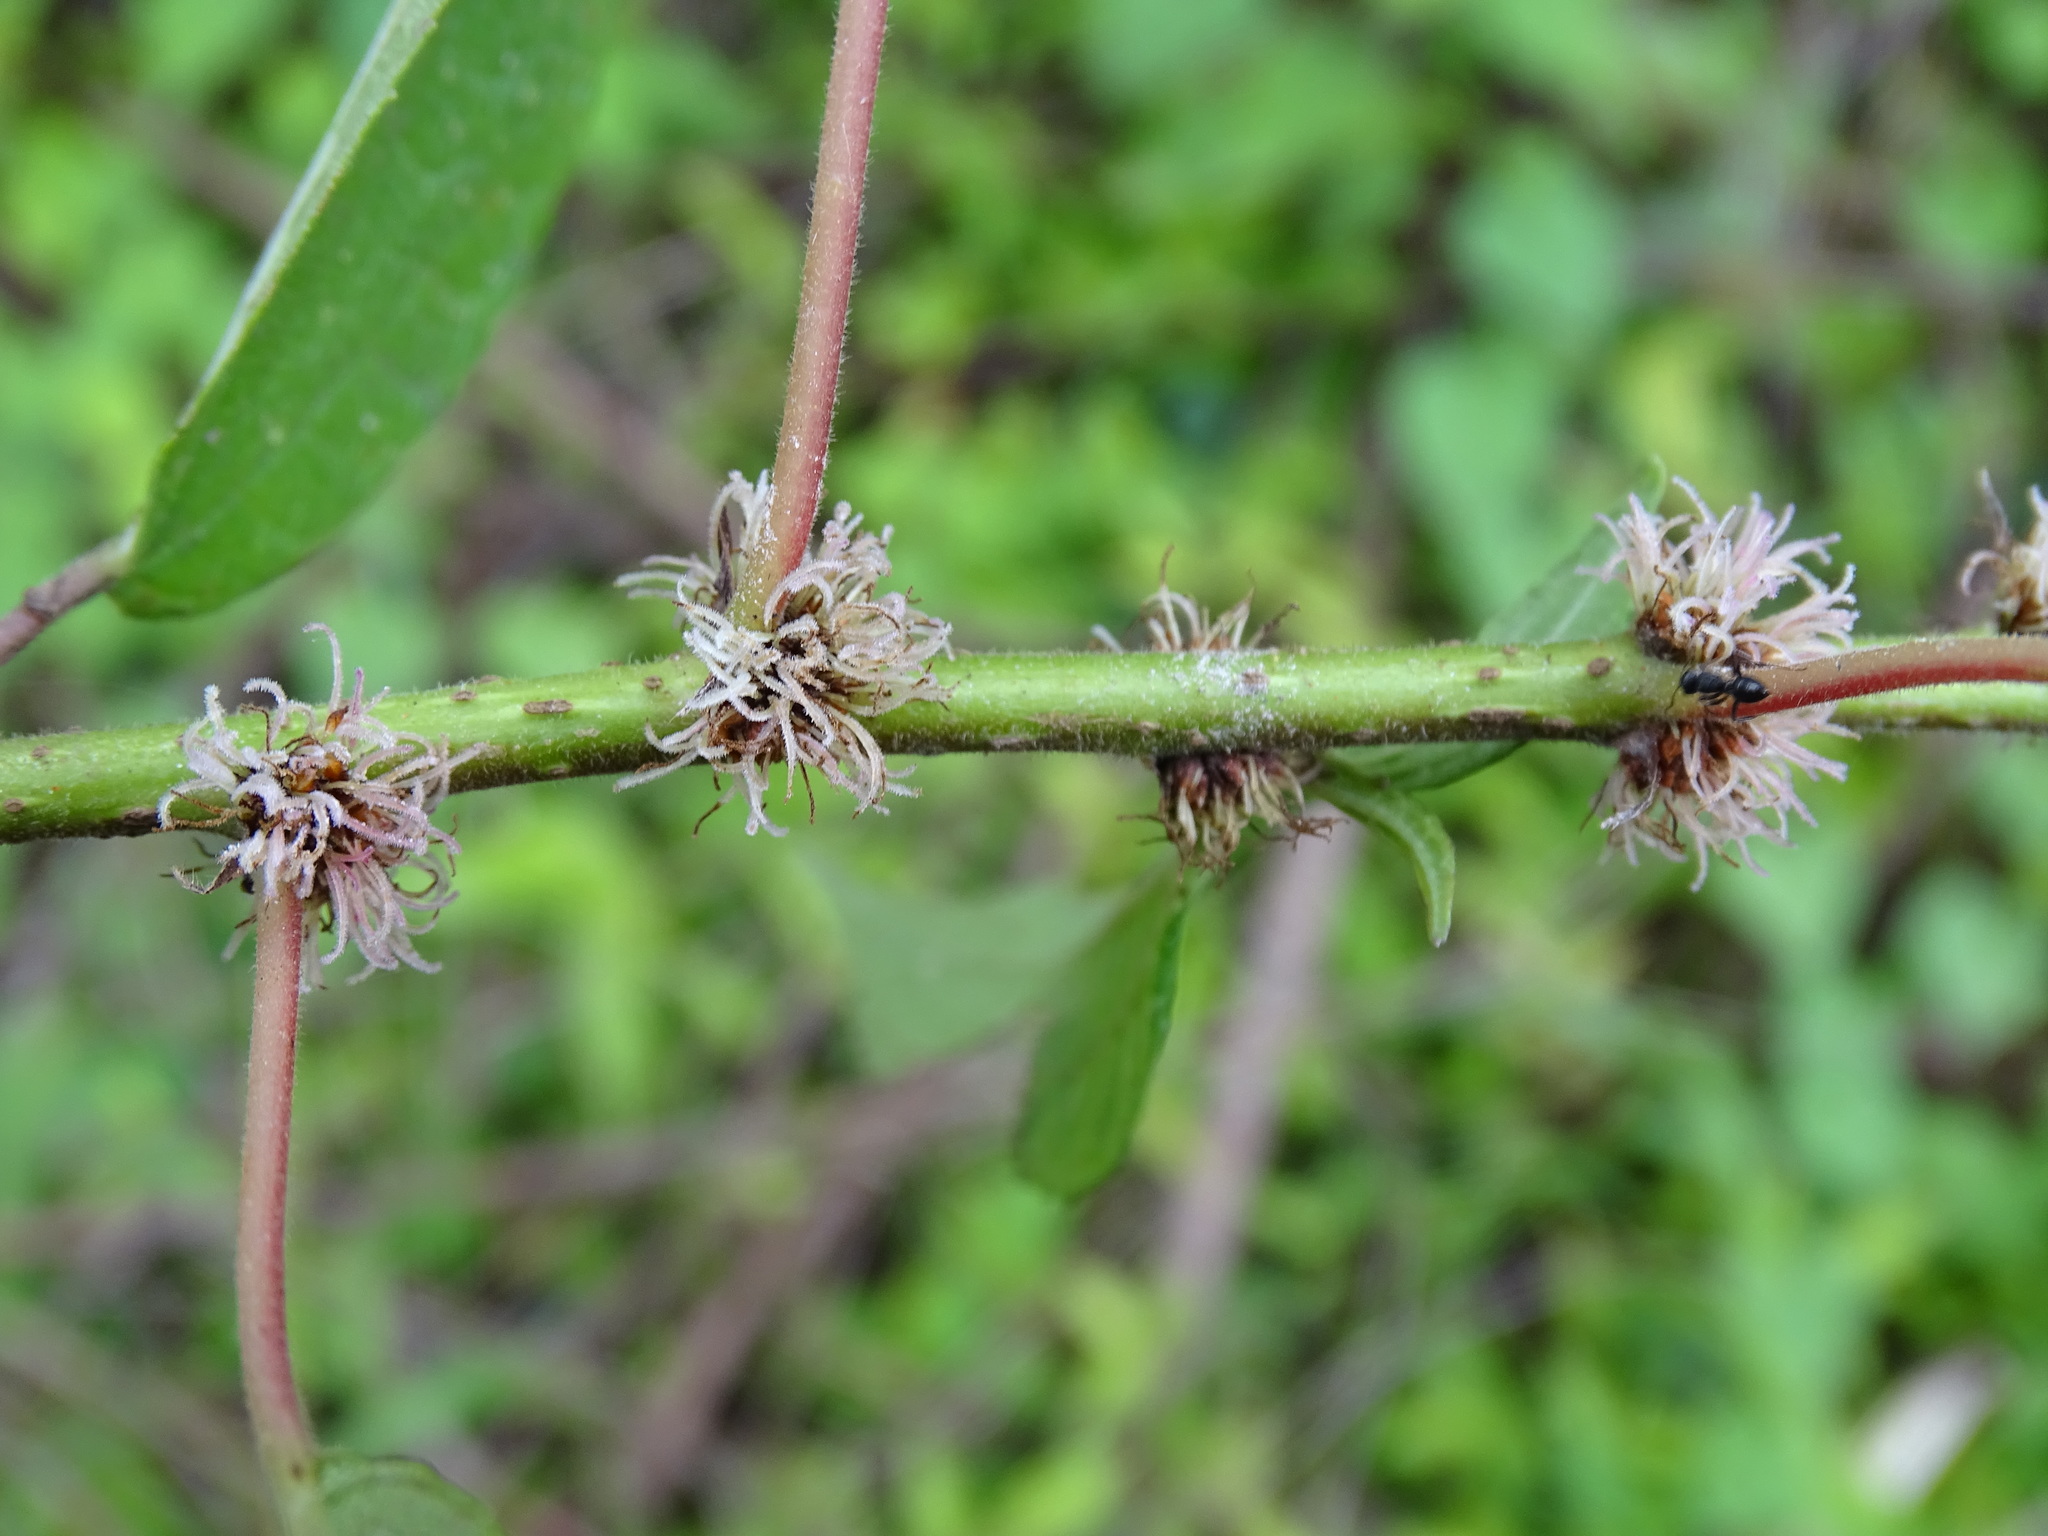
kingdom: Plantae
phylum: Tracheophyta
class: Magnoliopsida
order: Rosales
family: Urticaceae
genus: Phenax
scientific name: Phenax hirtus
